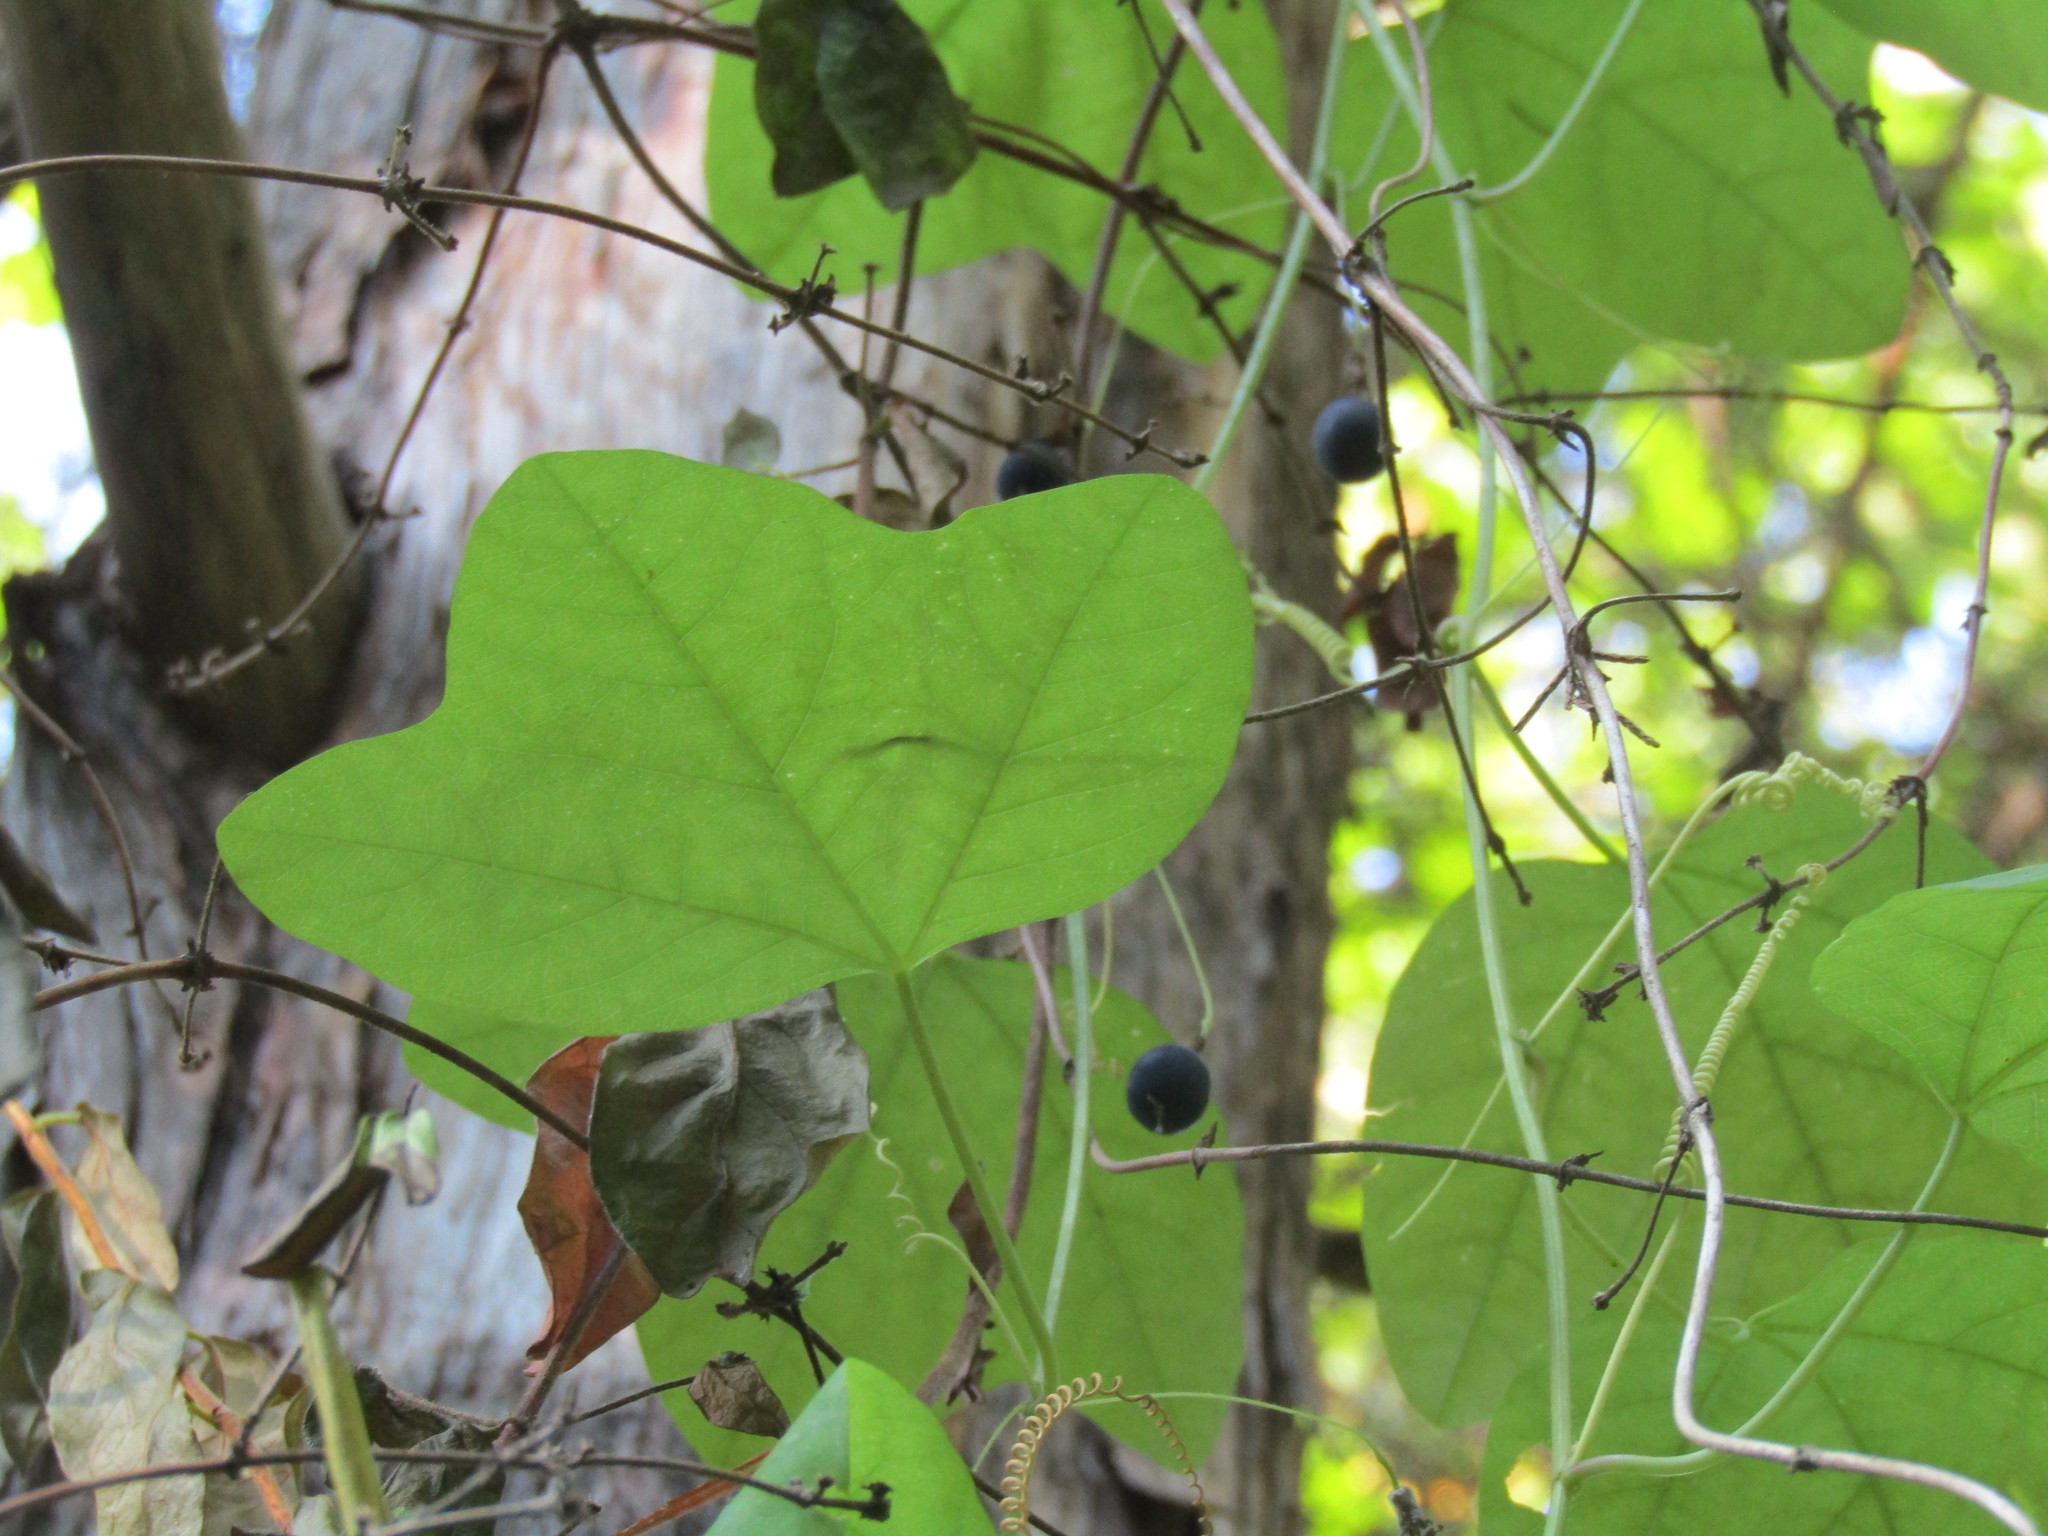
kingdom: Plantae
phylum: Tracheophyta
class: Magnoliopsida
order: Malpighiales
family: Passifloraceae
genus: Passiflora
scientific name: Passiflora lutea
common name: Yellow passionflower
